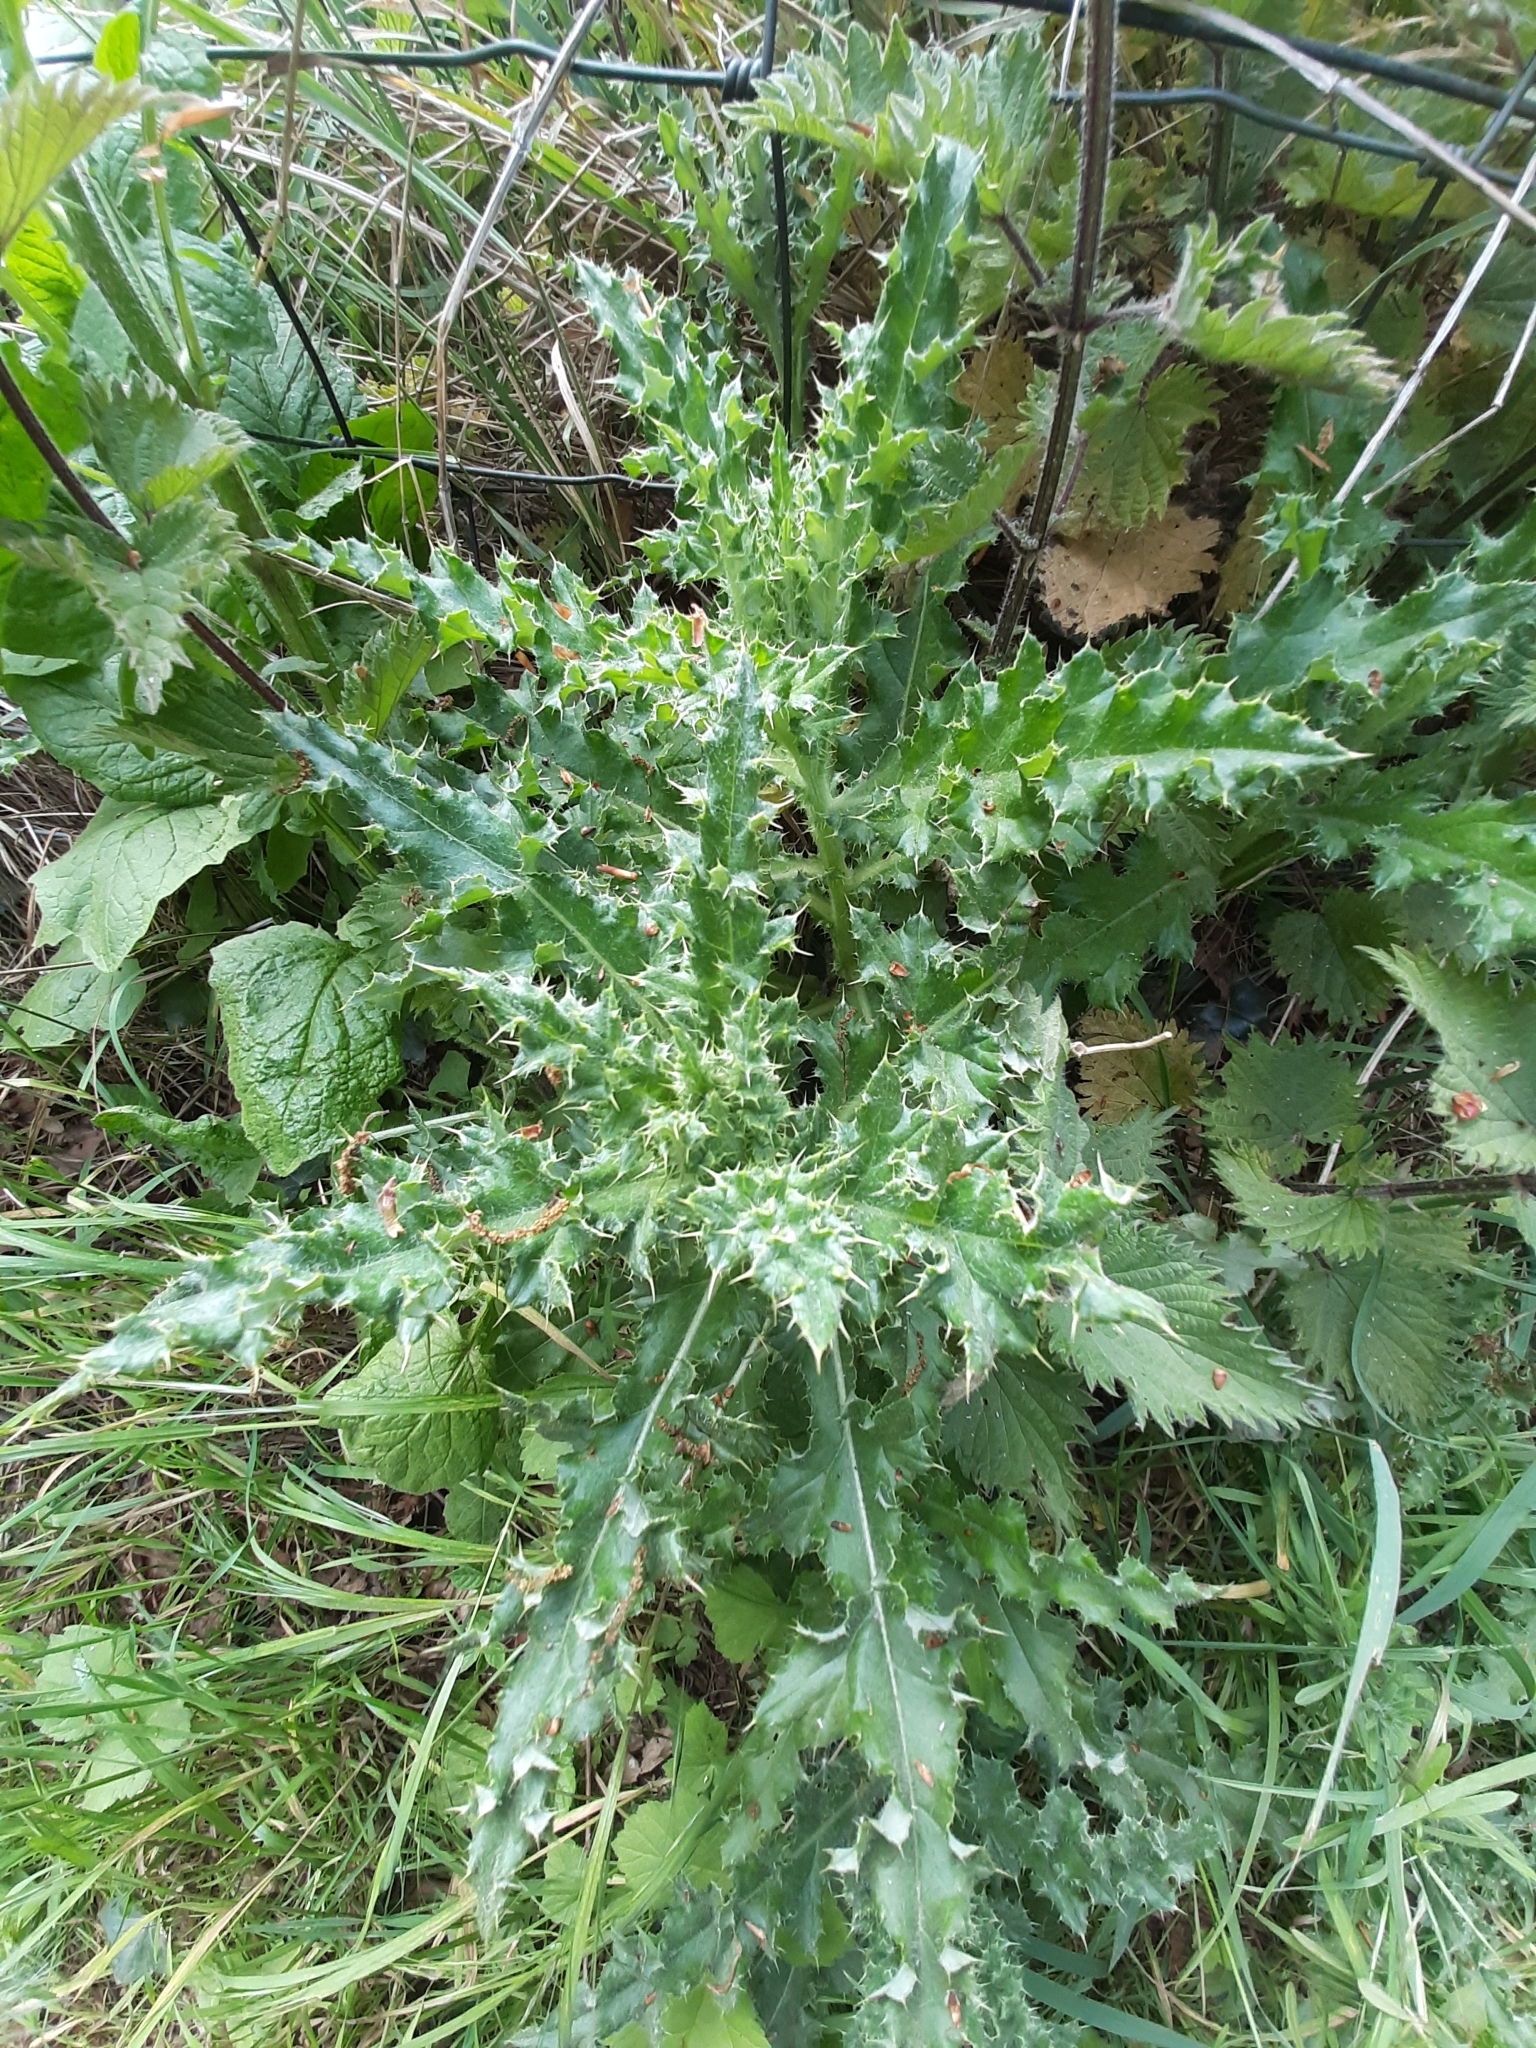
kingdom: Plantae
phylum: Tracheophyta
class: Magnoliopsida
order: Asterales
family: Asteraceae
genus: Cirsium
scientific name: Cirsium arvense
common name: Creeping thistle
